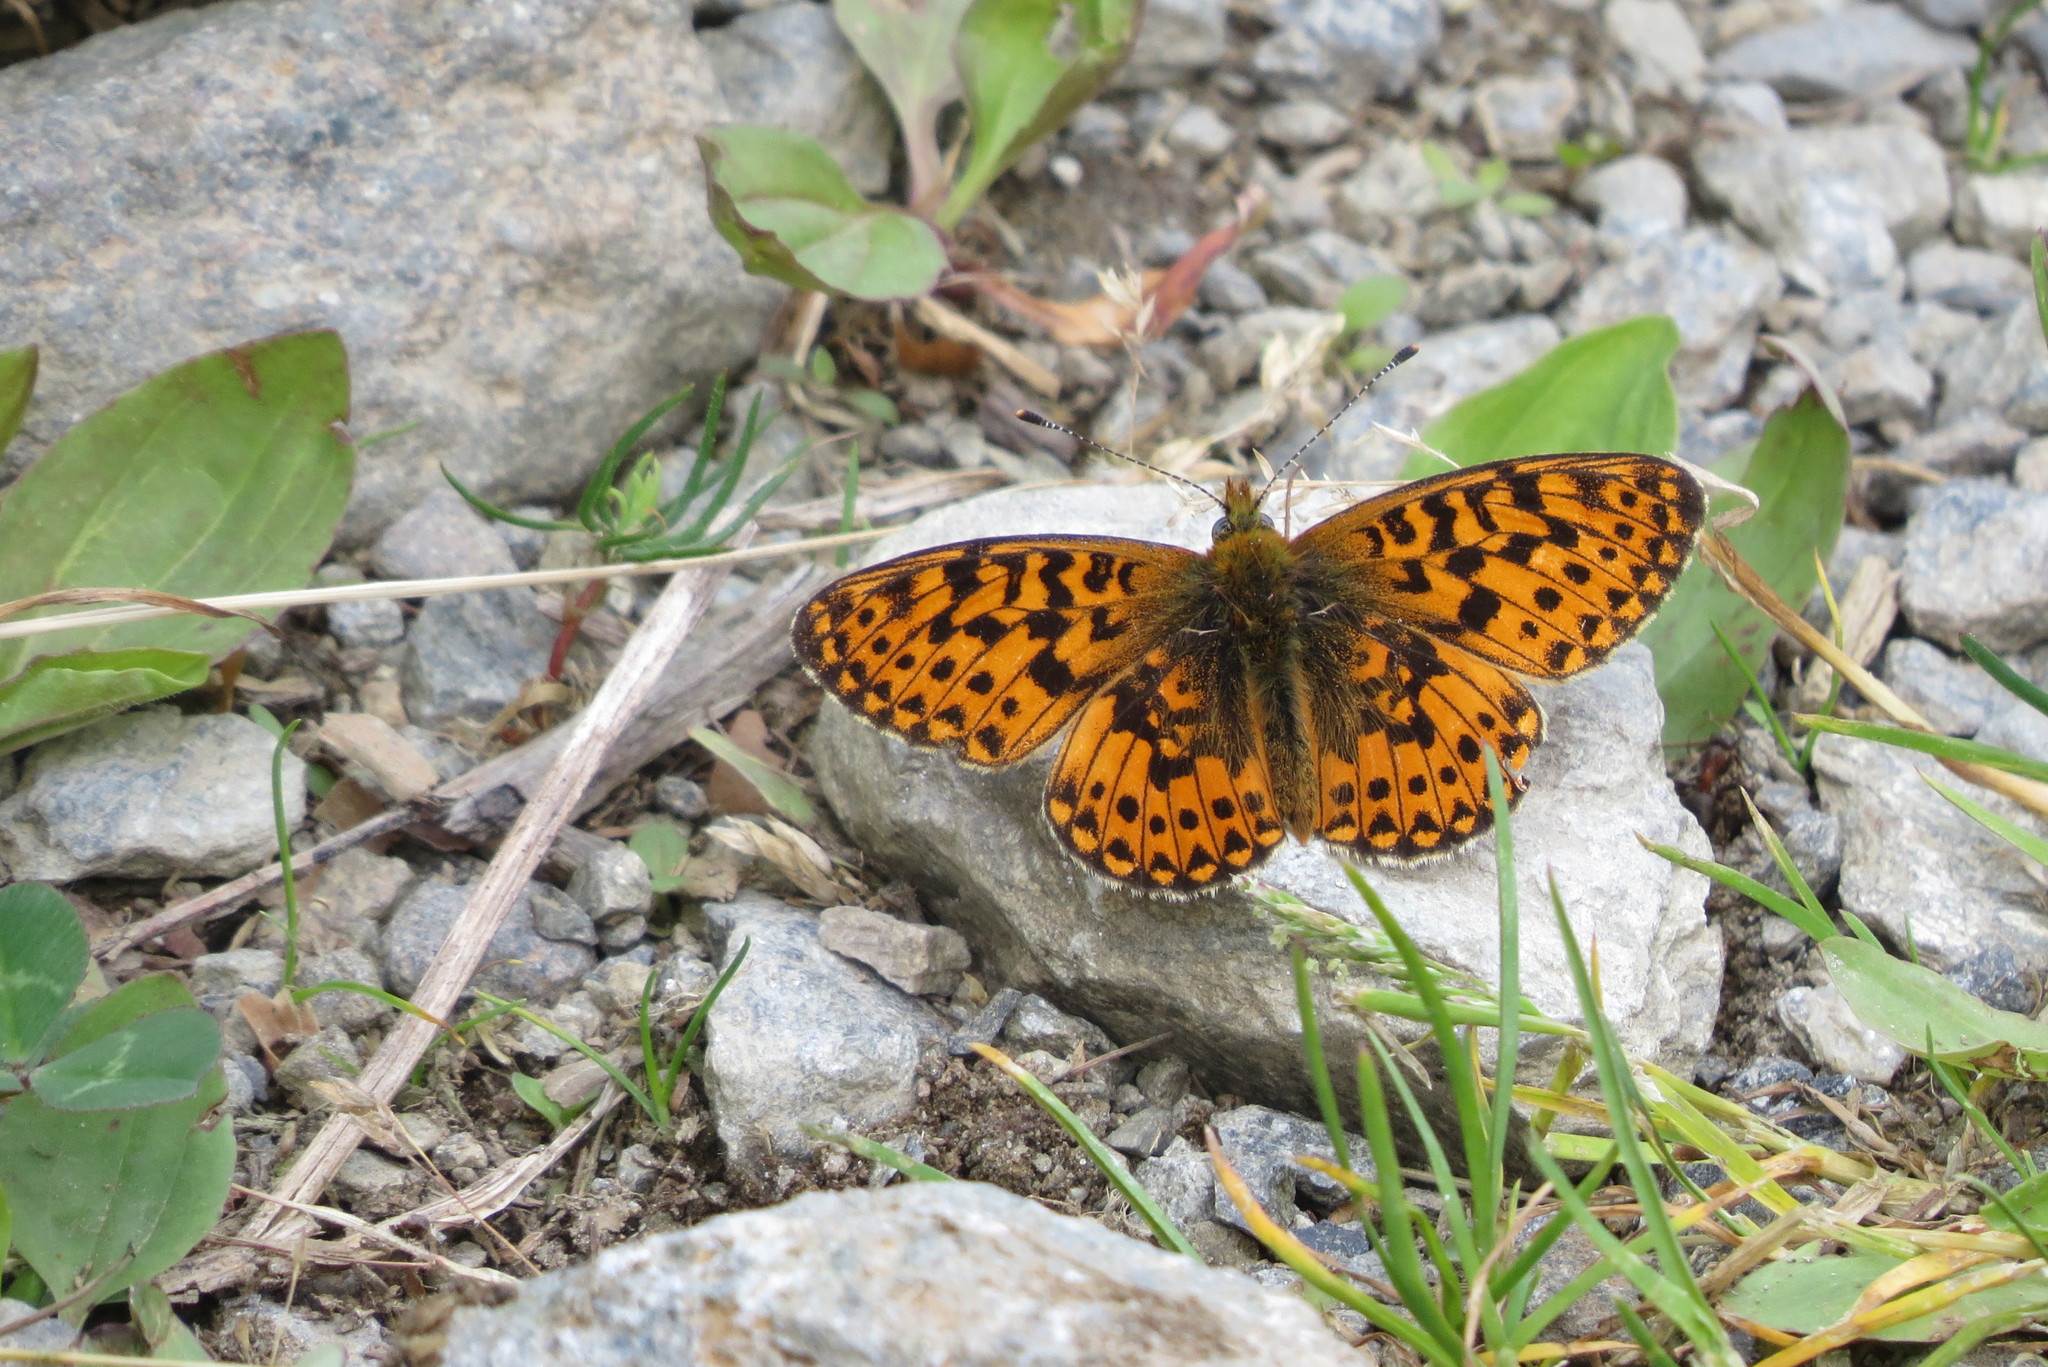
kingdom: Animalia
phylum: Arthropoda
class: Insecta
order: Lepidoptera
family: Nymphalidae
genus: Clossiana
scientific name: Clossiana euphrosyne
